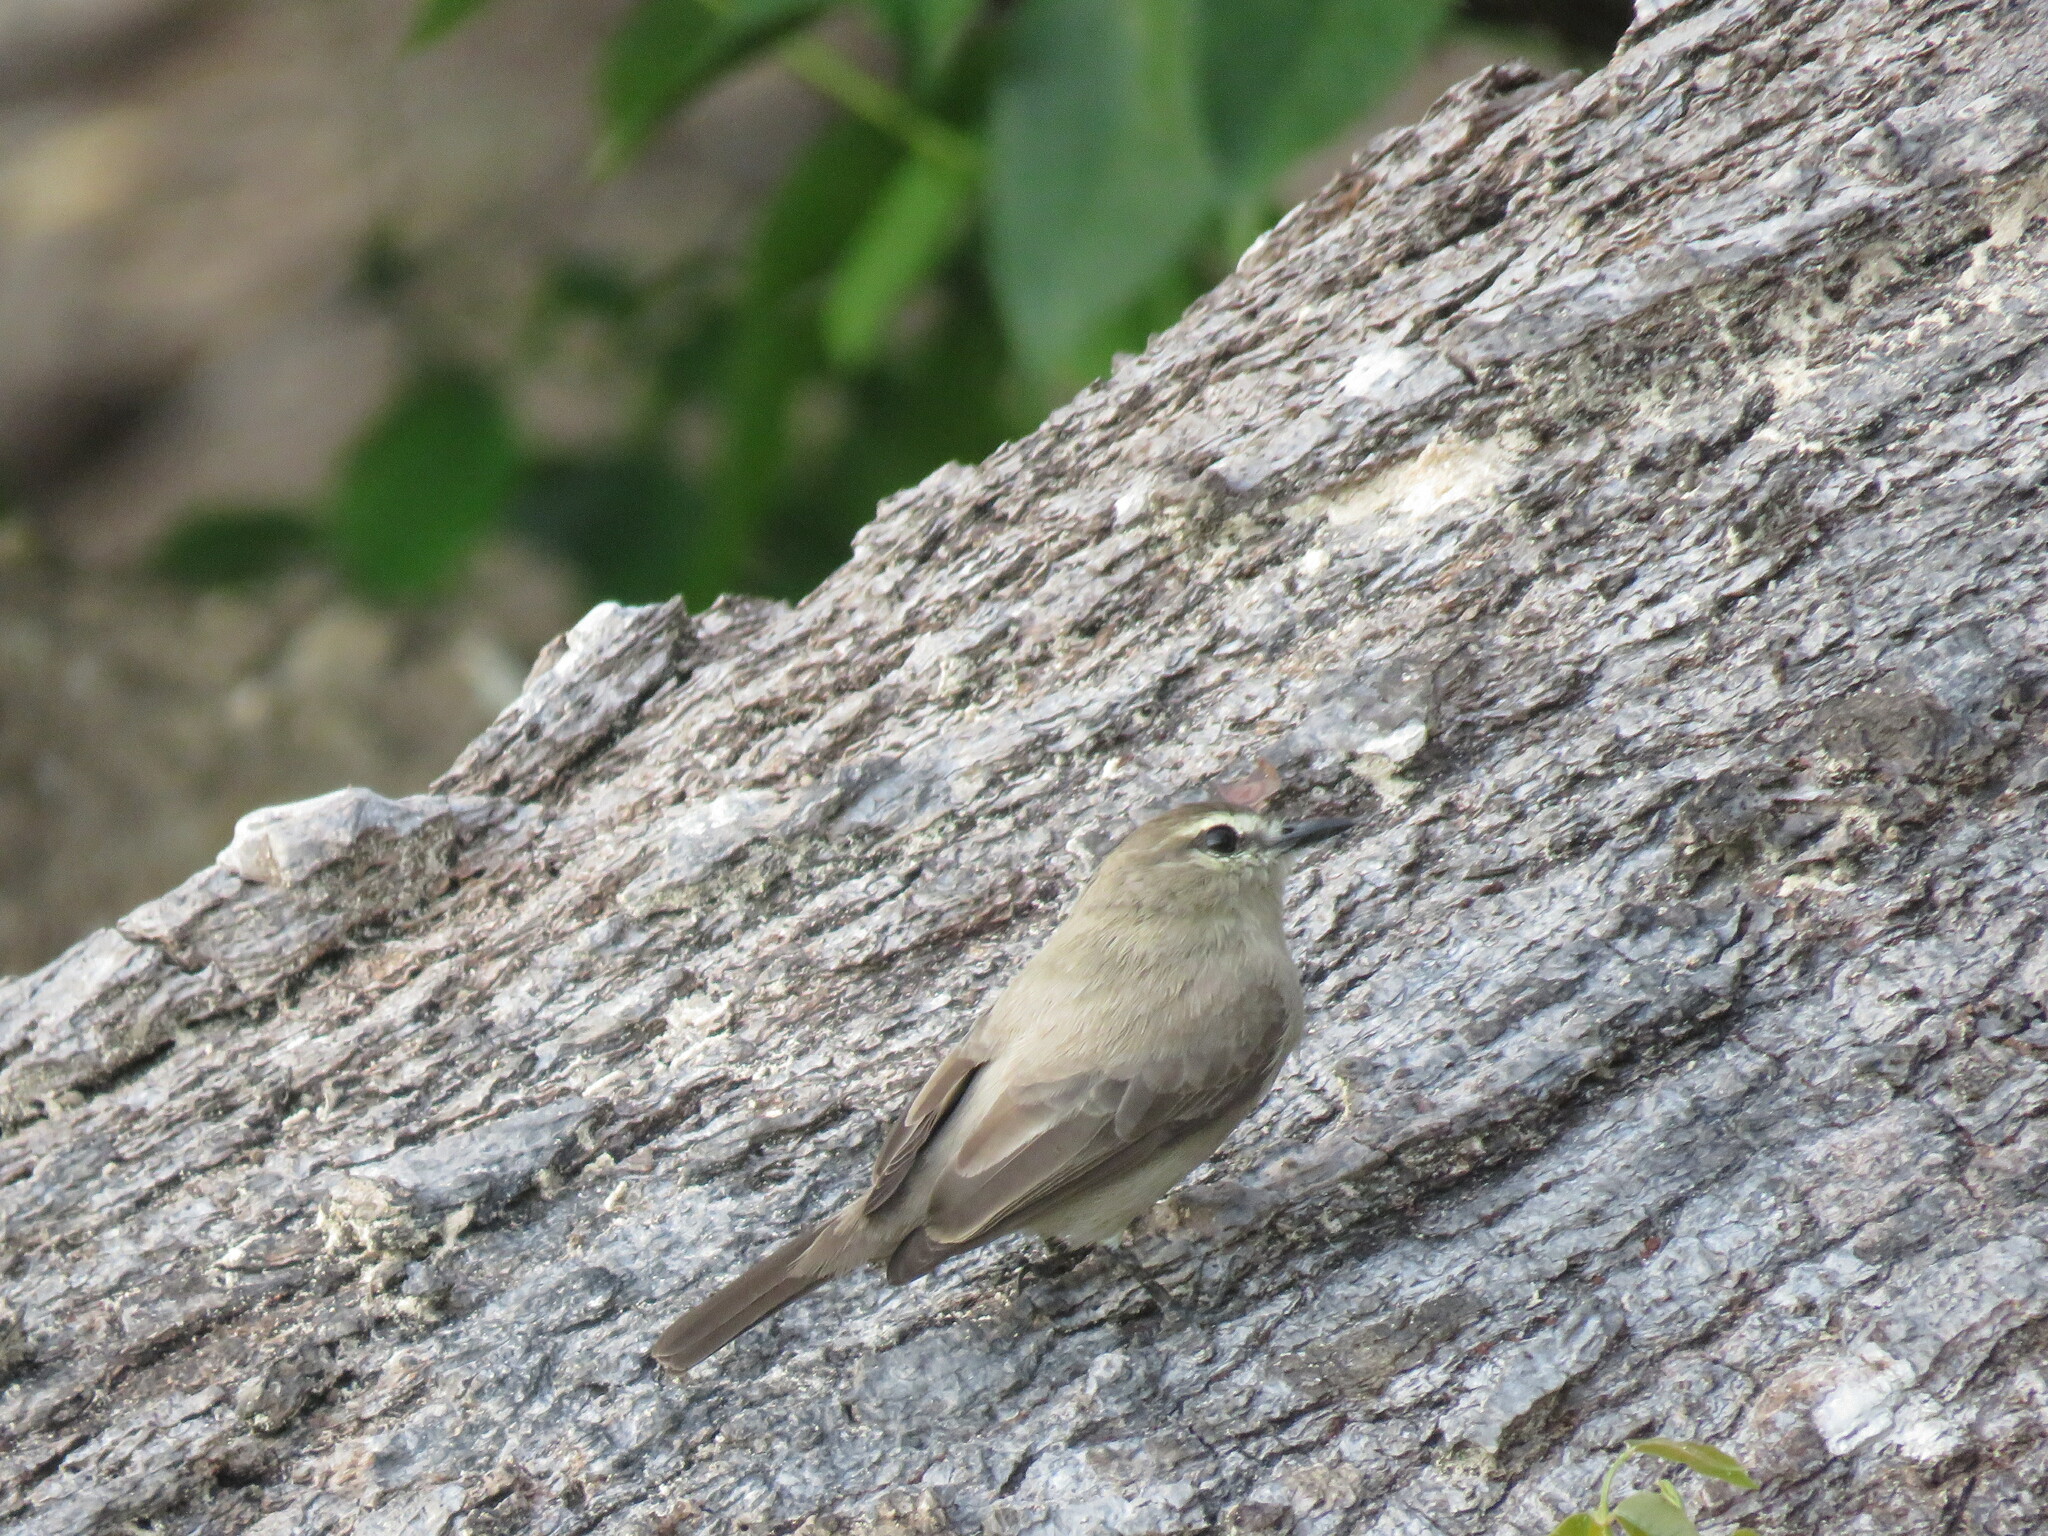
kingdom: Animalia
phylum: Chordata
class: Aves
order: Passeriformes
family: Tyrannidae
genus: Ochthornis
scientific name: Ochthornis littoralis
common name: Drab water tyrant
